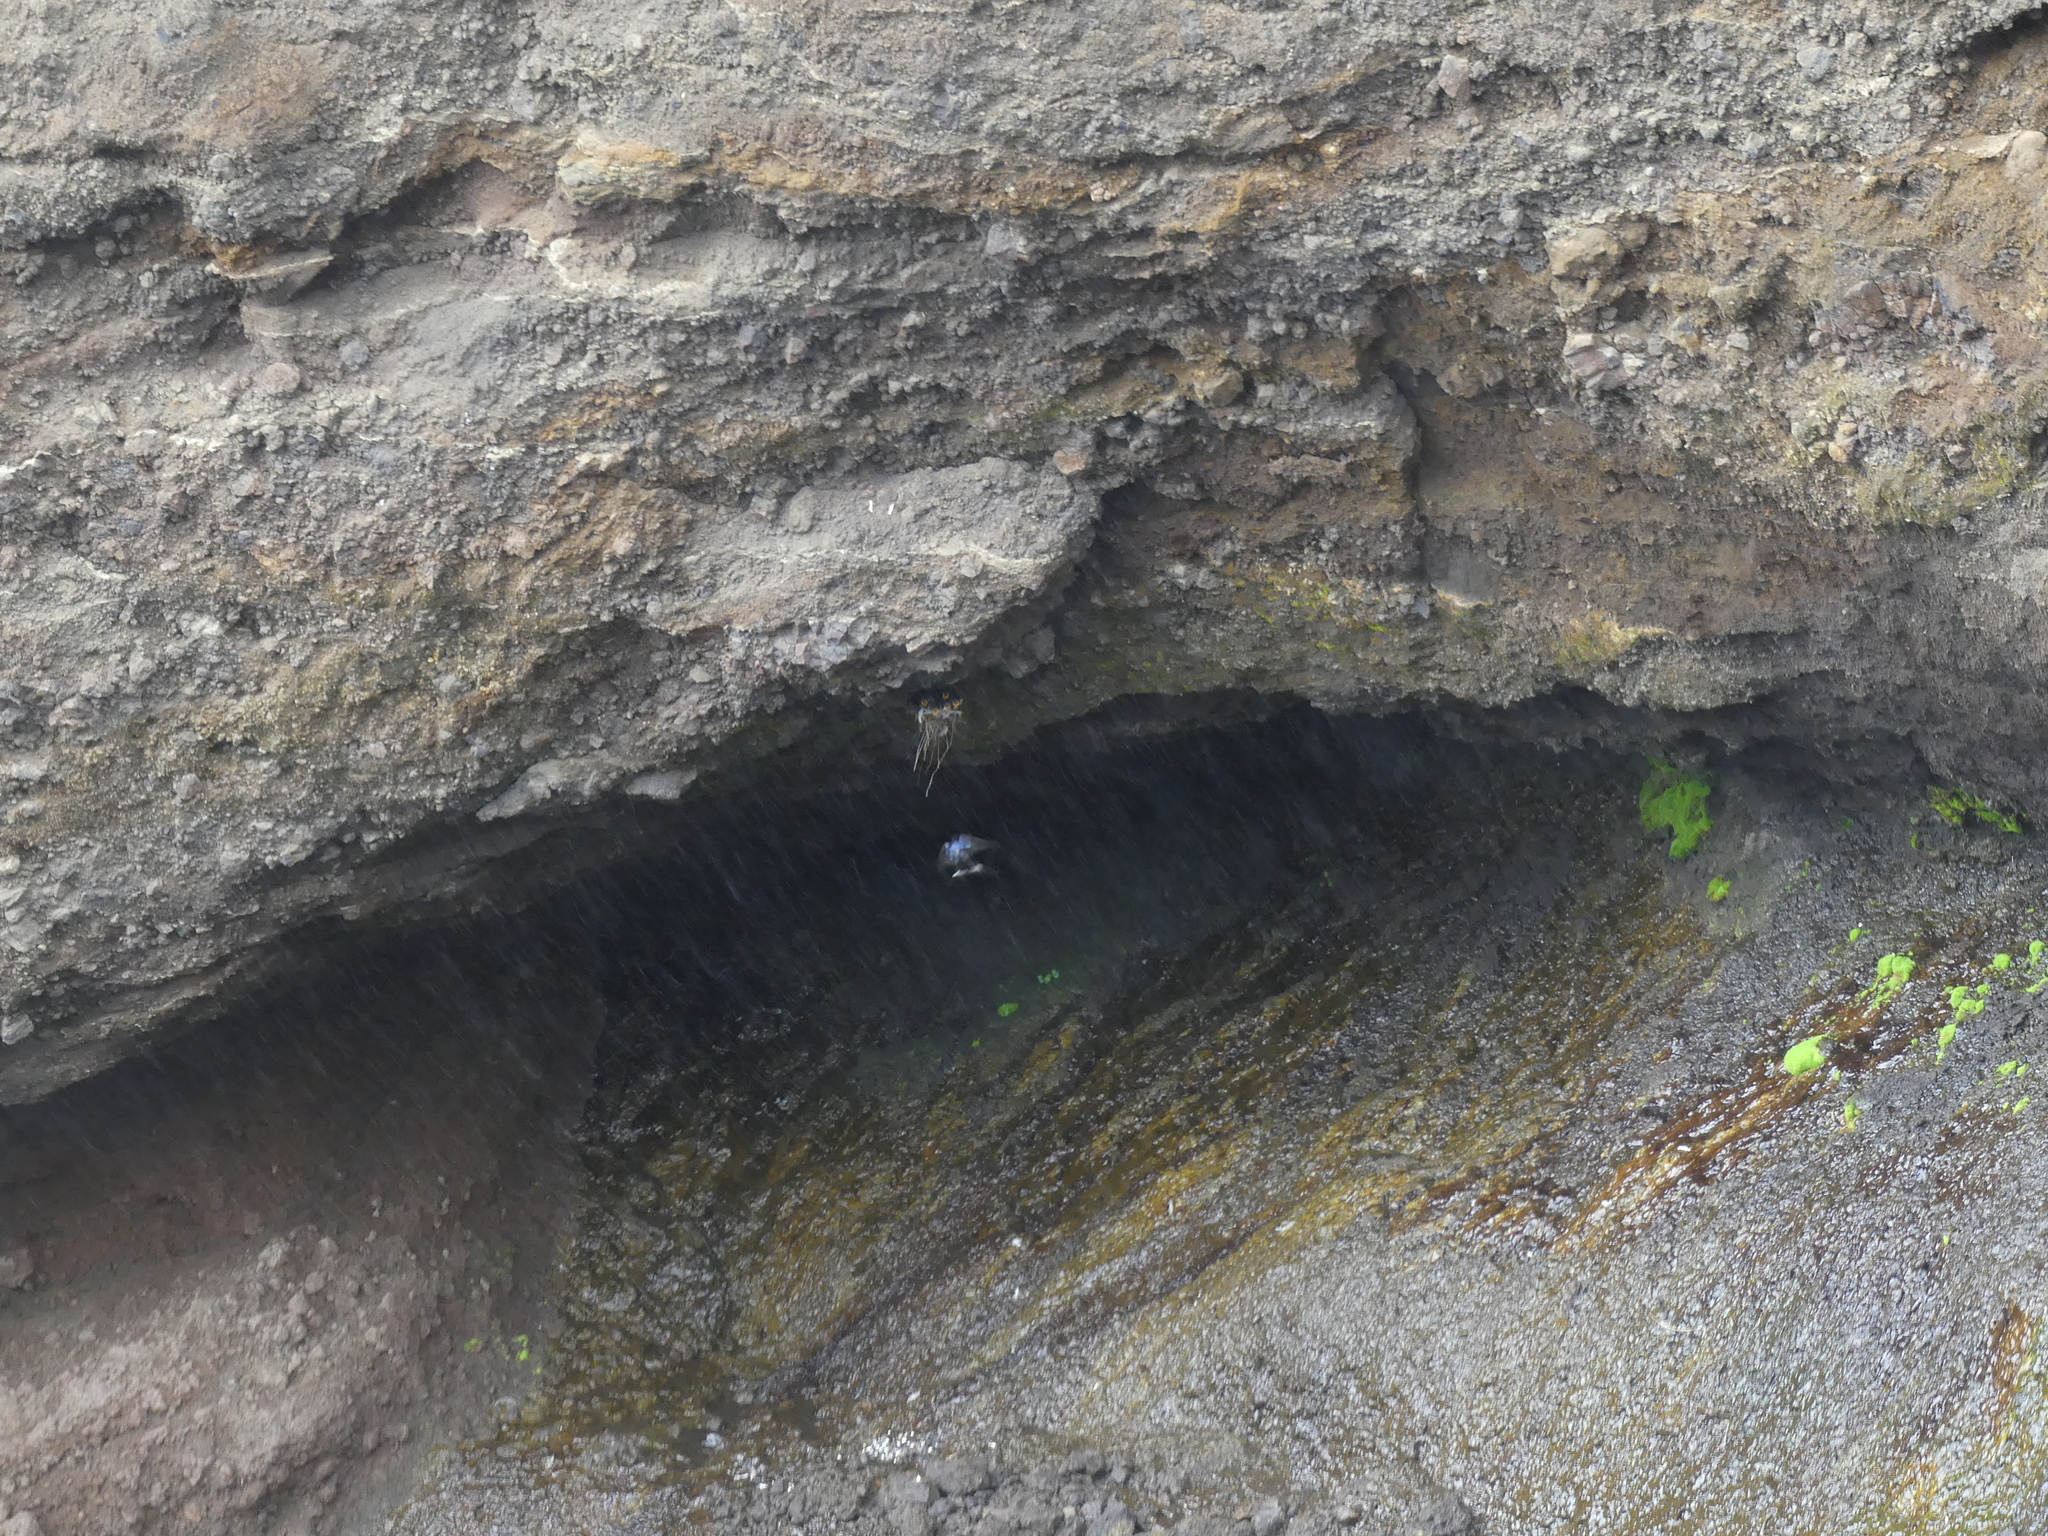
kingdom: Animalia
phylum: Chordata
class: Aves
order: Passeriformes
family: Hirundinidae
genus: Hirundo
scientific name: Hirundo rustica
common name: Barn swallow
